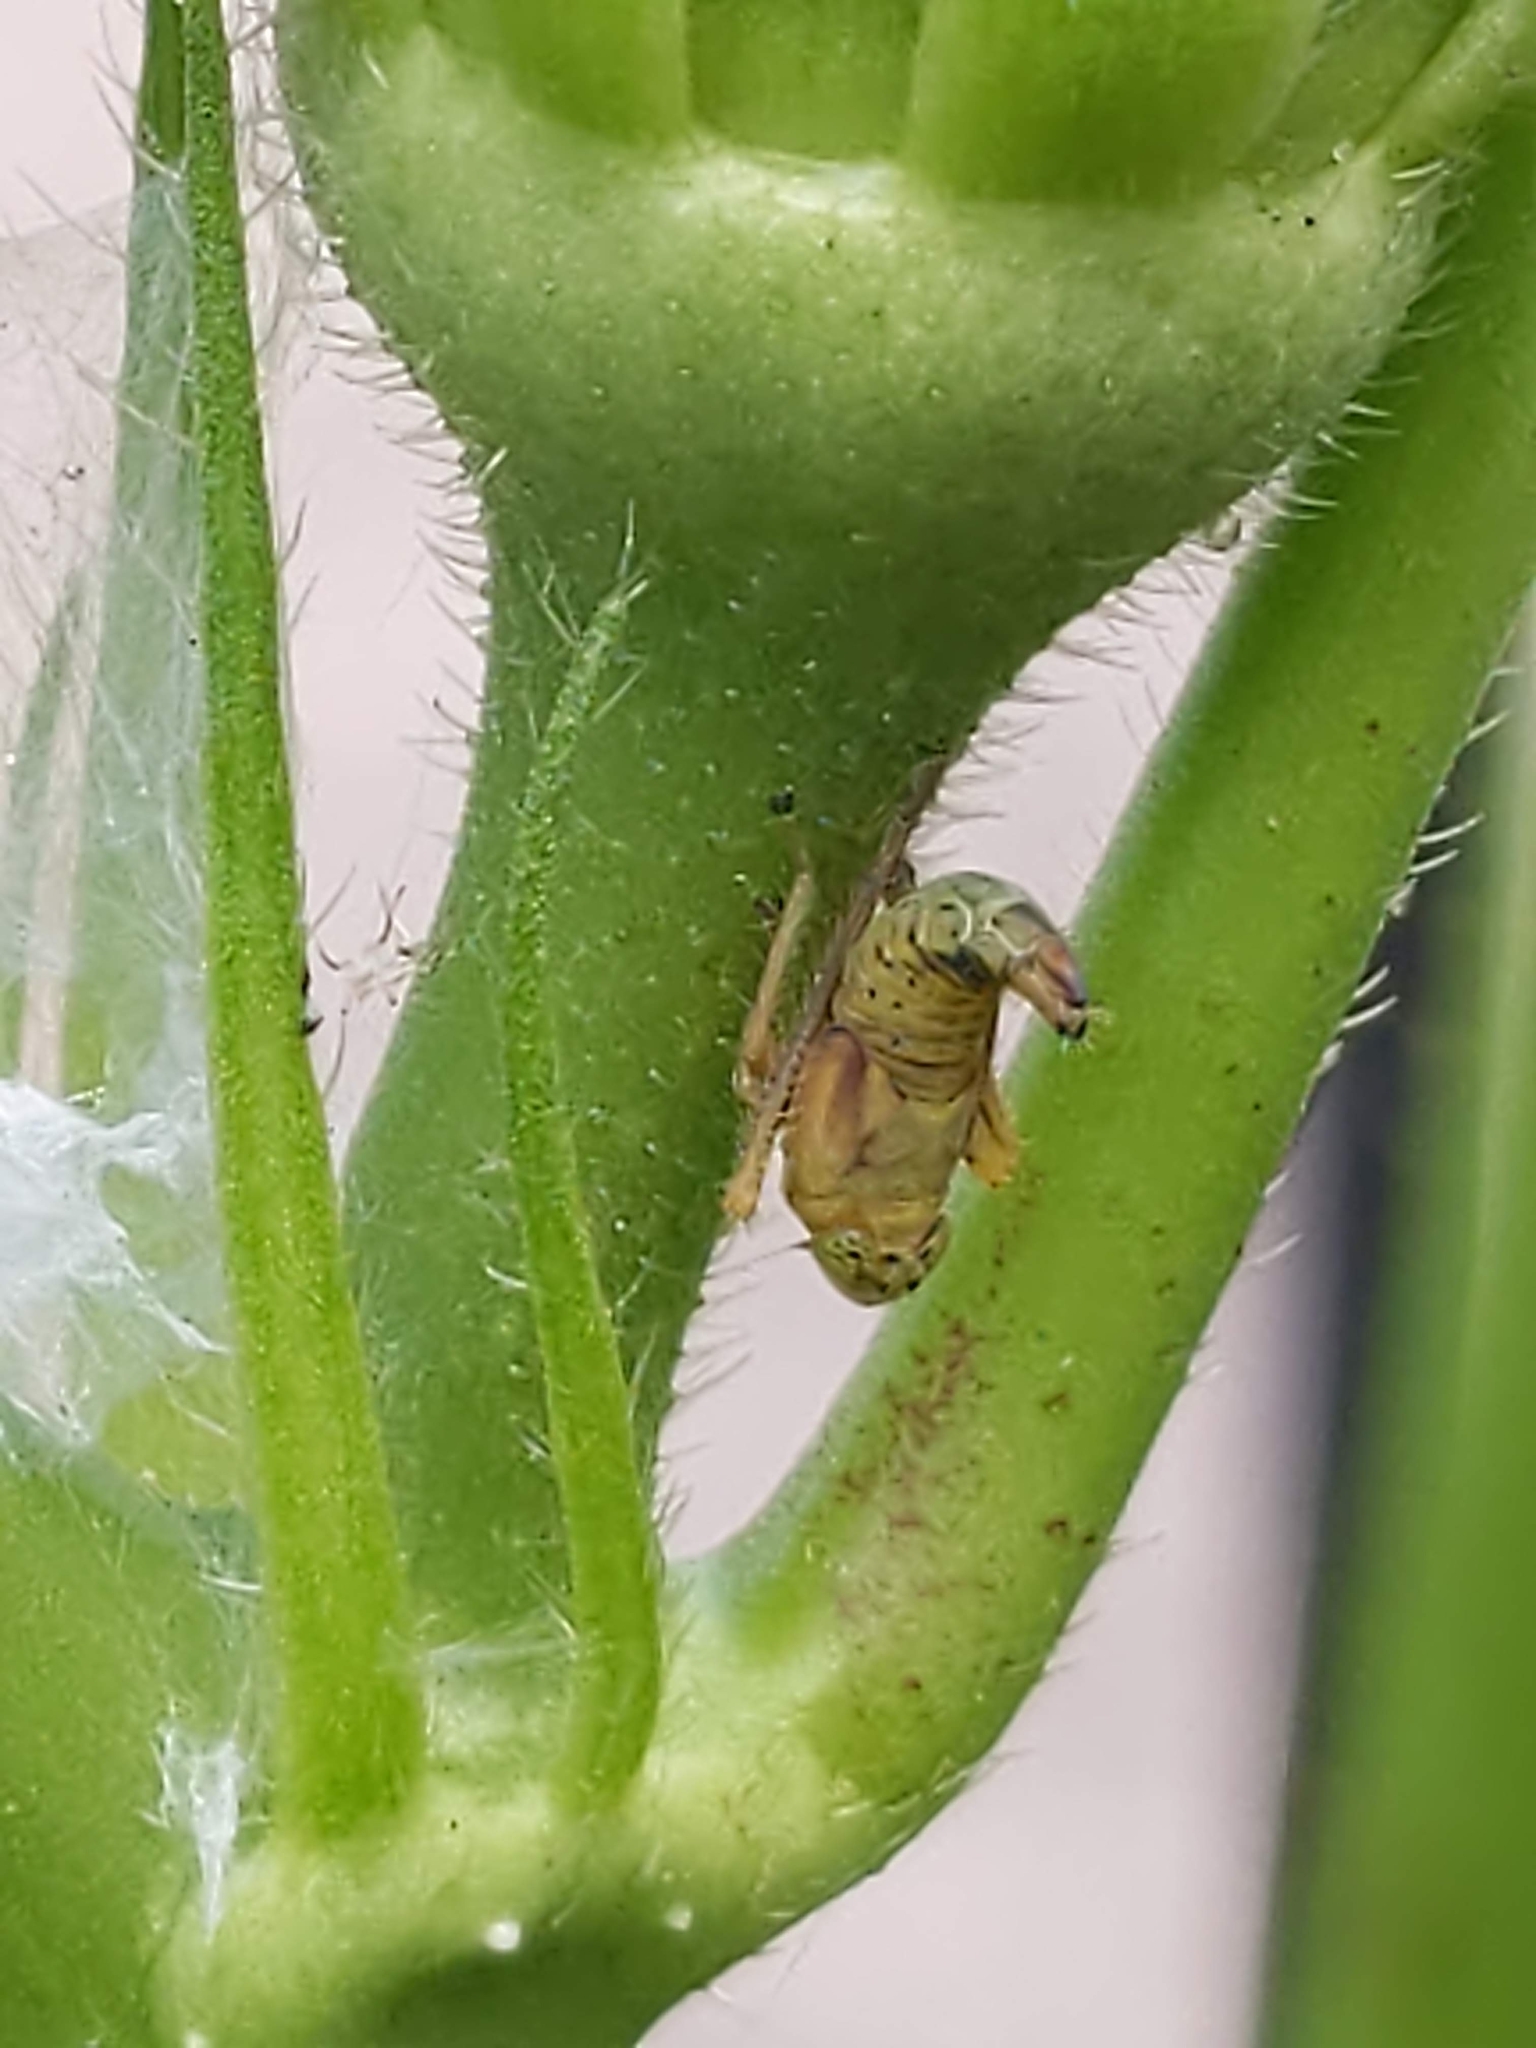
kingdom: Animalia
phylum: Arthropoda
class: Insecta
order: Hemiptera
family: Cicadellidae
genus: Jikradia
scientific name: Jikradia olitoria
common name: Coppery leafhopper
